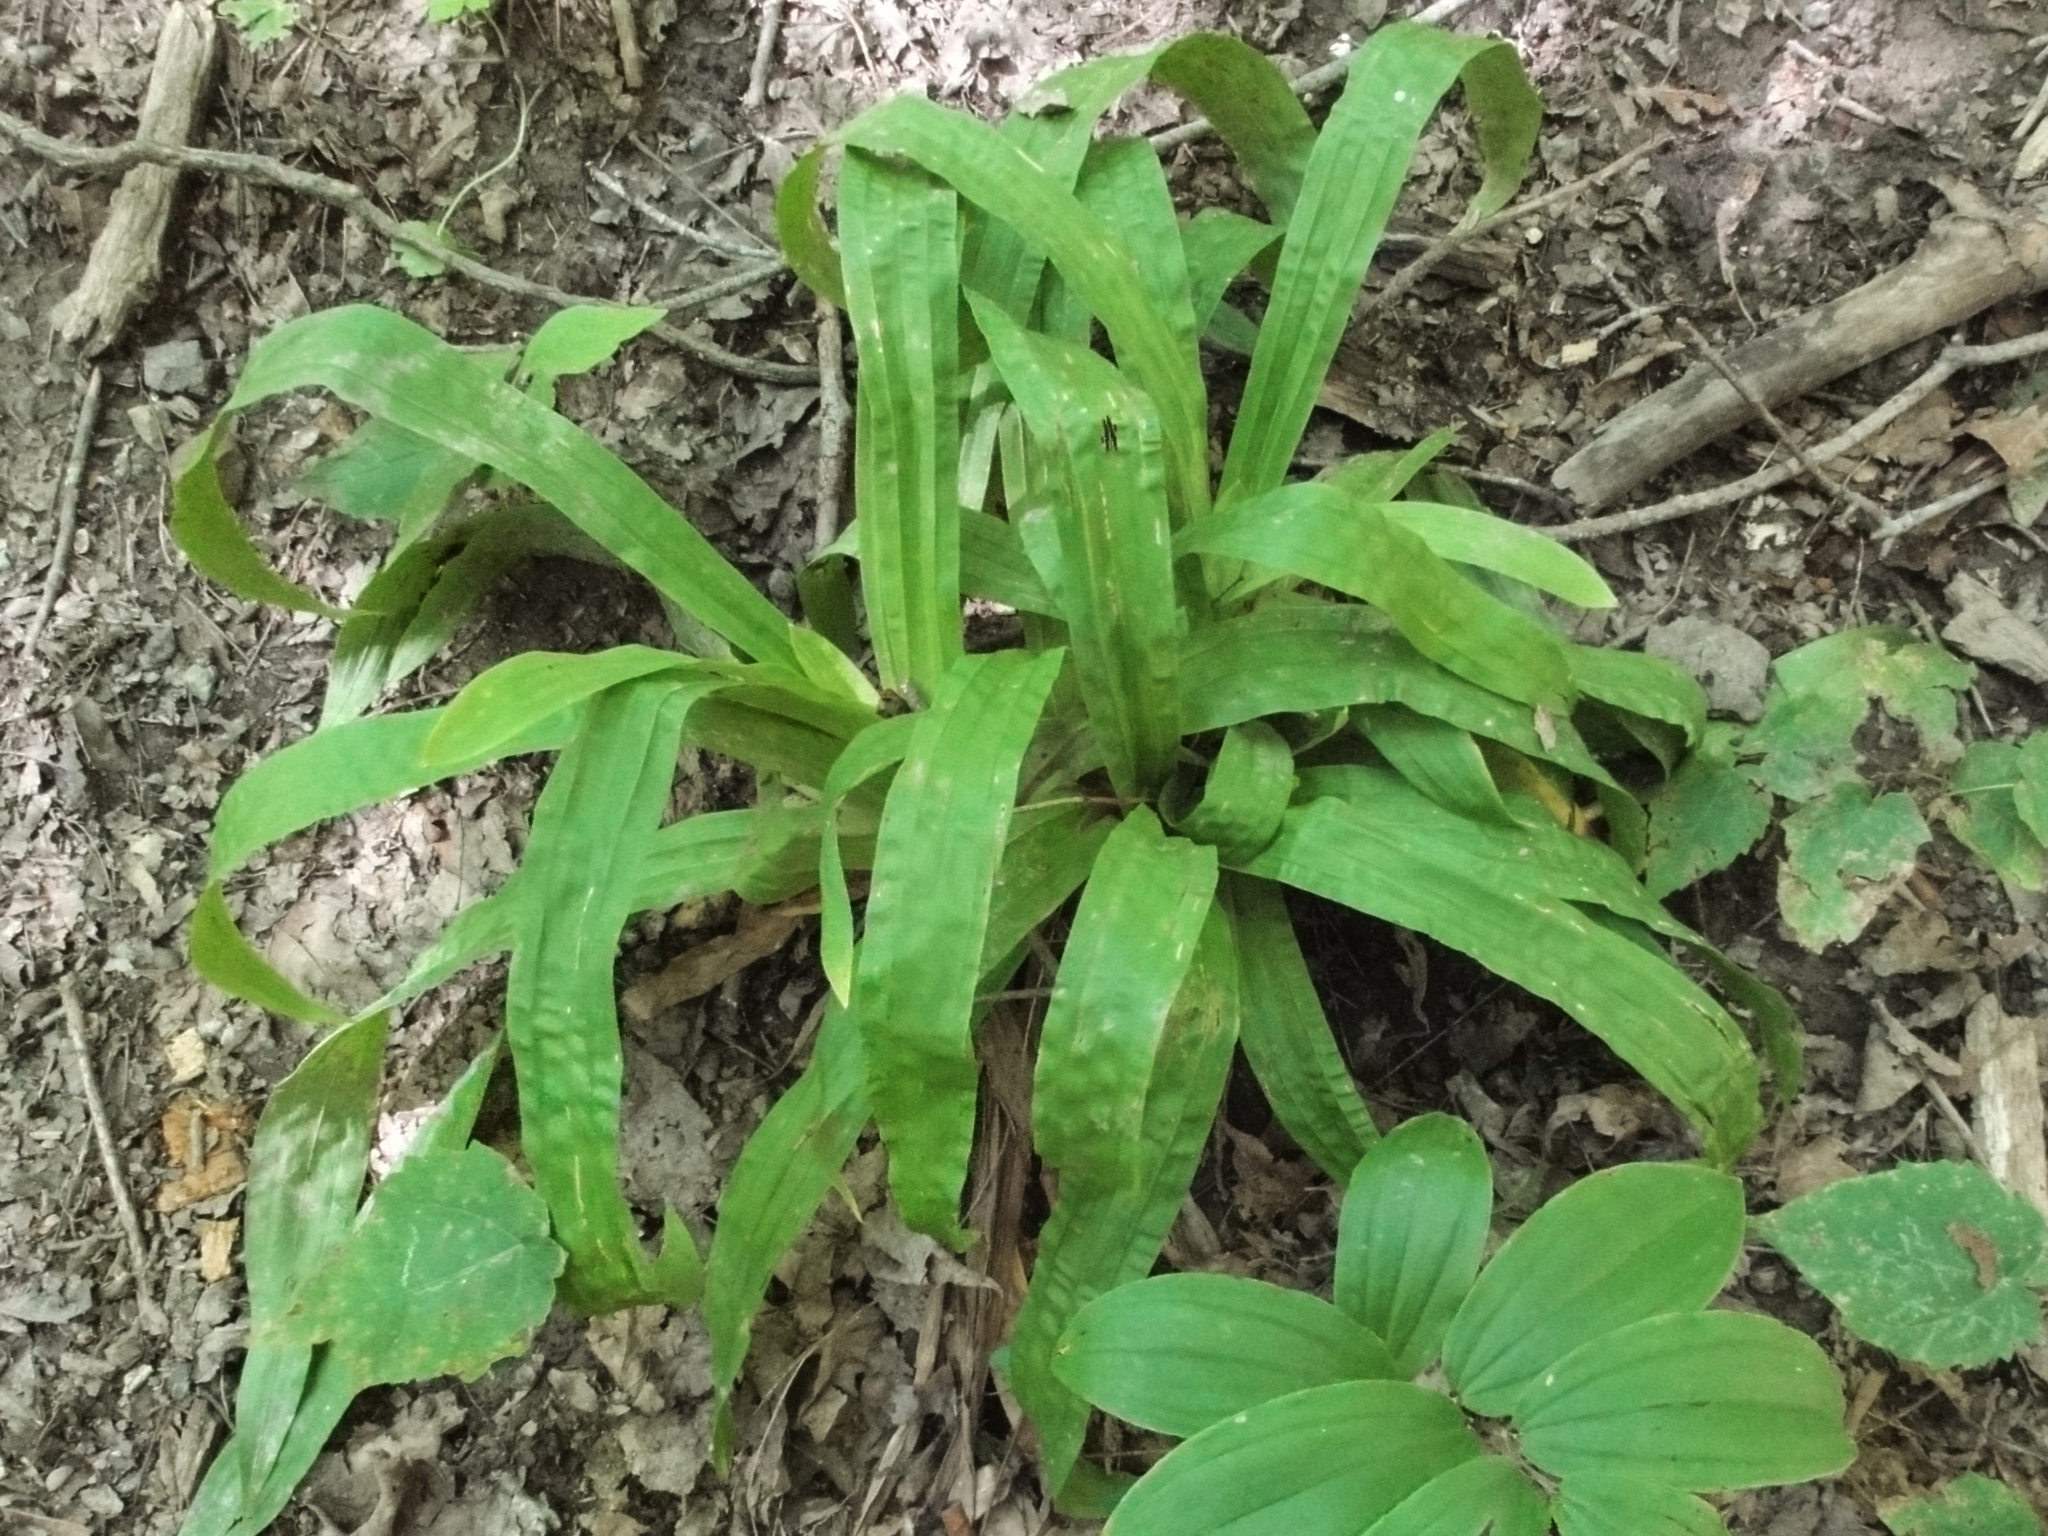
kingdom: Plantae
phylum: Tracheophyta
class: Liliopsida
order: Poales
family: Cyperaceae
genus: Carex
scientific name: Carex plantaginea
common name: Plantain-leaved sedge
